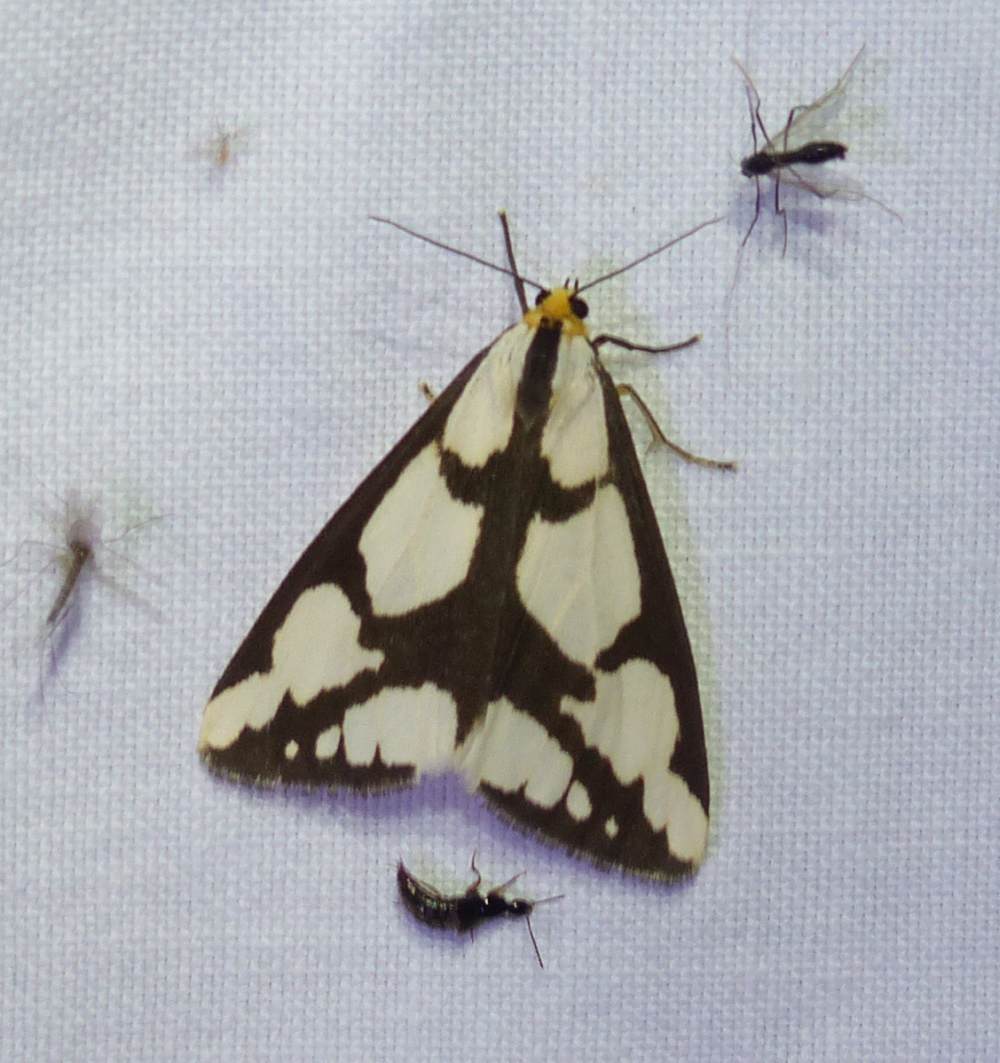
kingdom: Animalia
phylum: Arthropoda
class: Insecta
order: Lepidoptera
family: Erebidae
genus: Haploa
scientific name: Haploa lecontei
